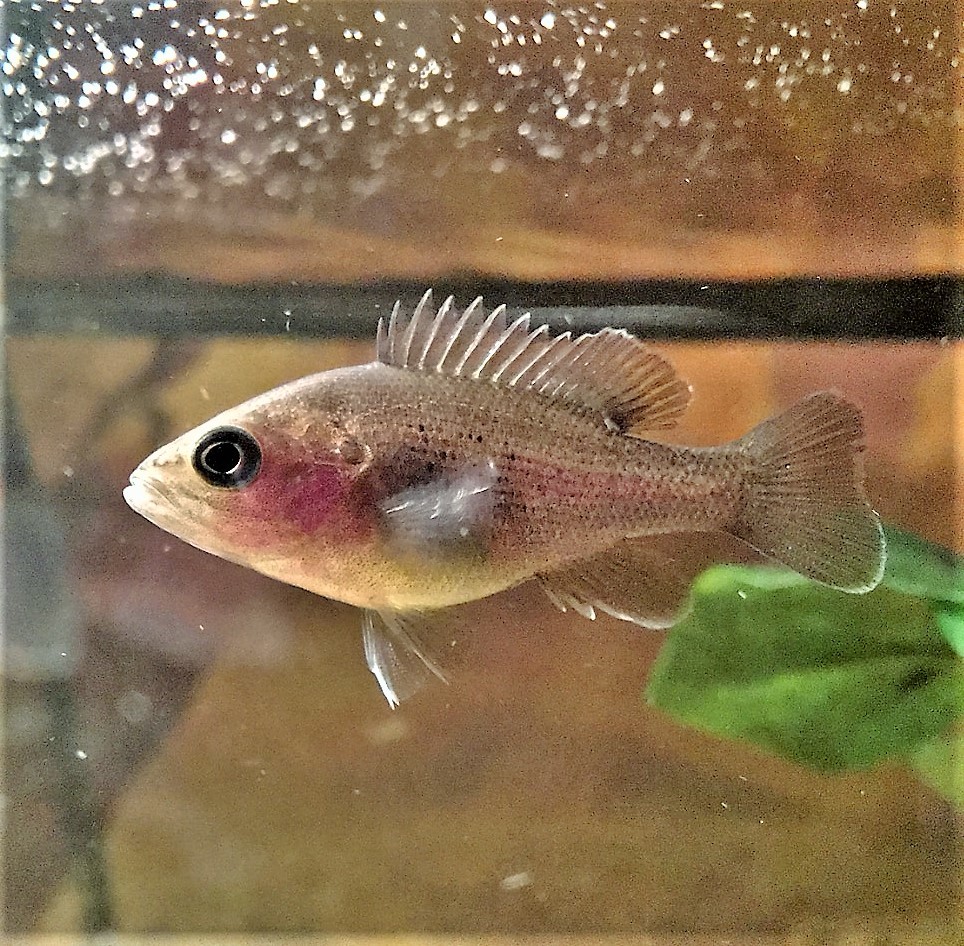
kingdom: Animalia
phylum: Chordata
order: Perciformes
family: Centrarchidae
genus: Lepomis
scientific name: Lepomis cyanellus
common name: Green sunfish
